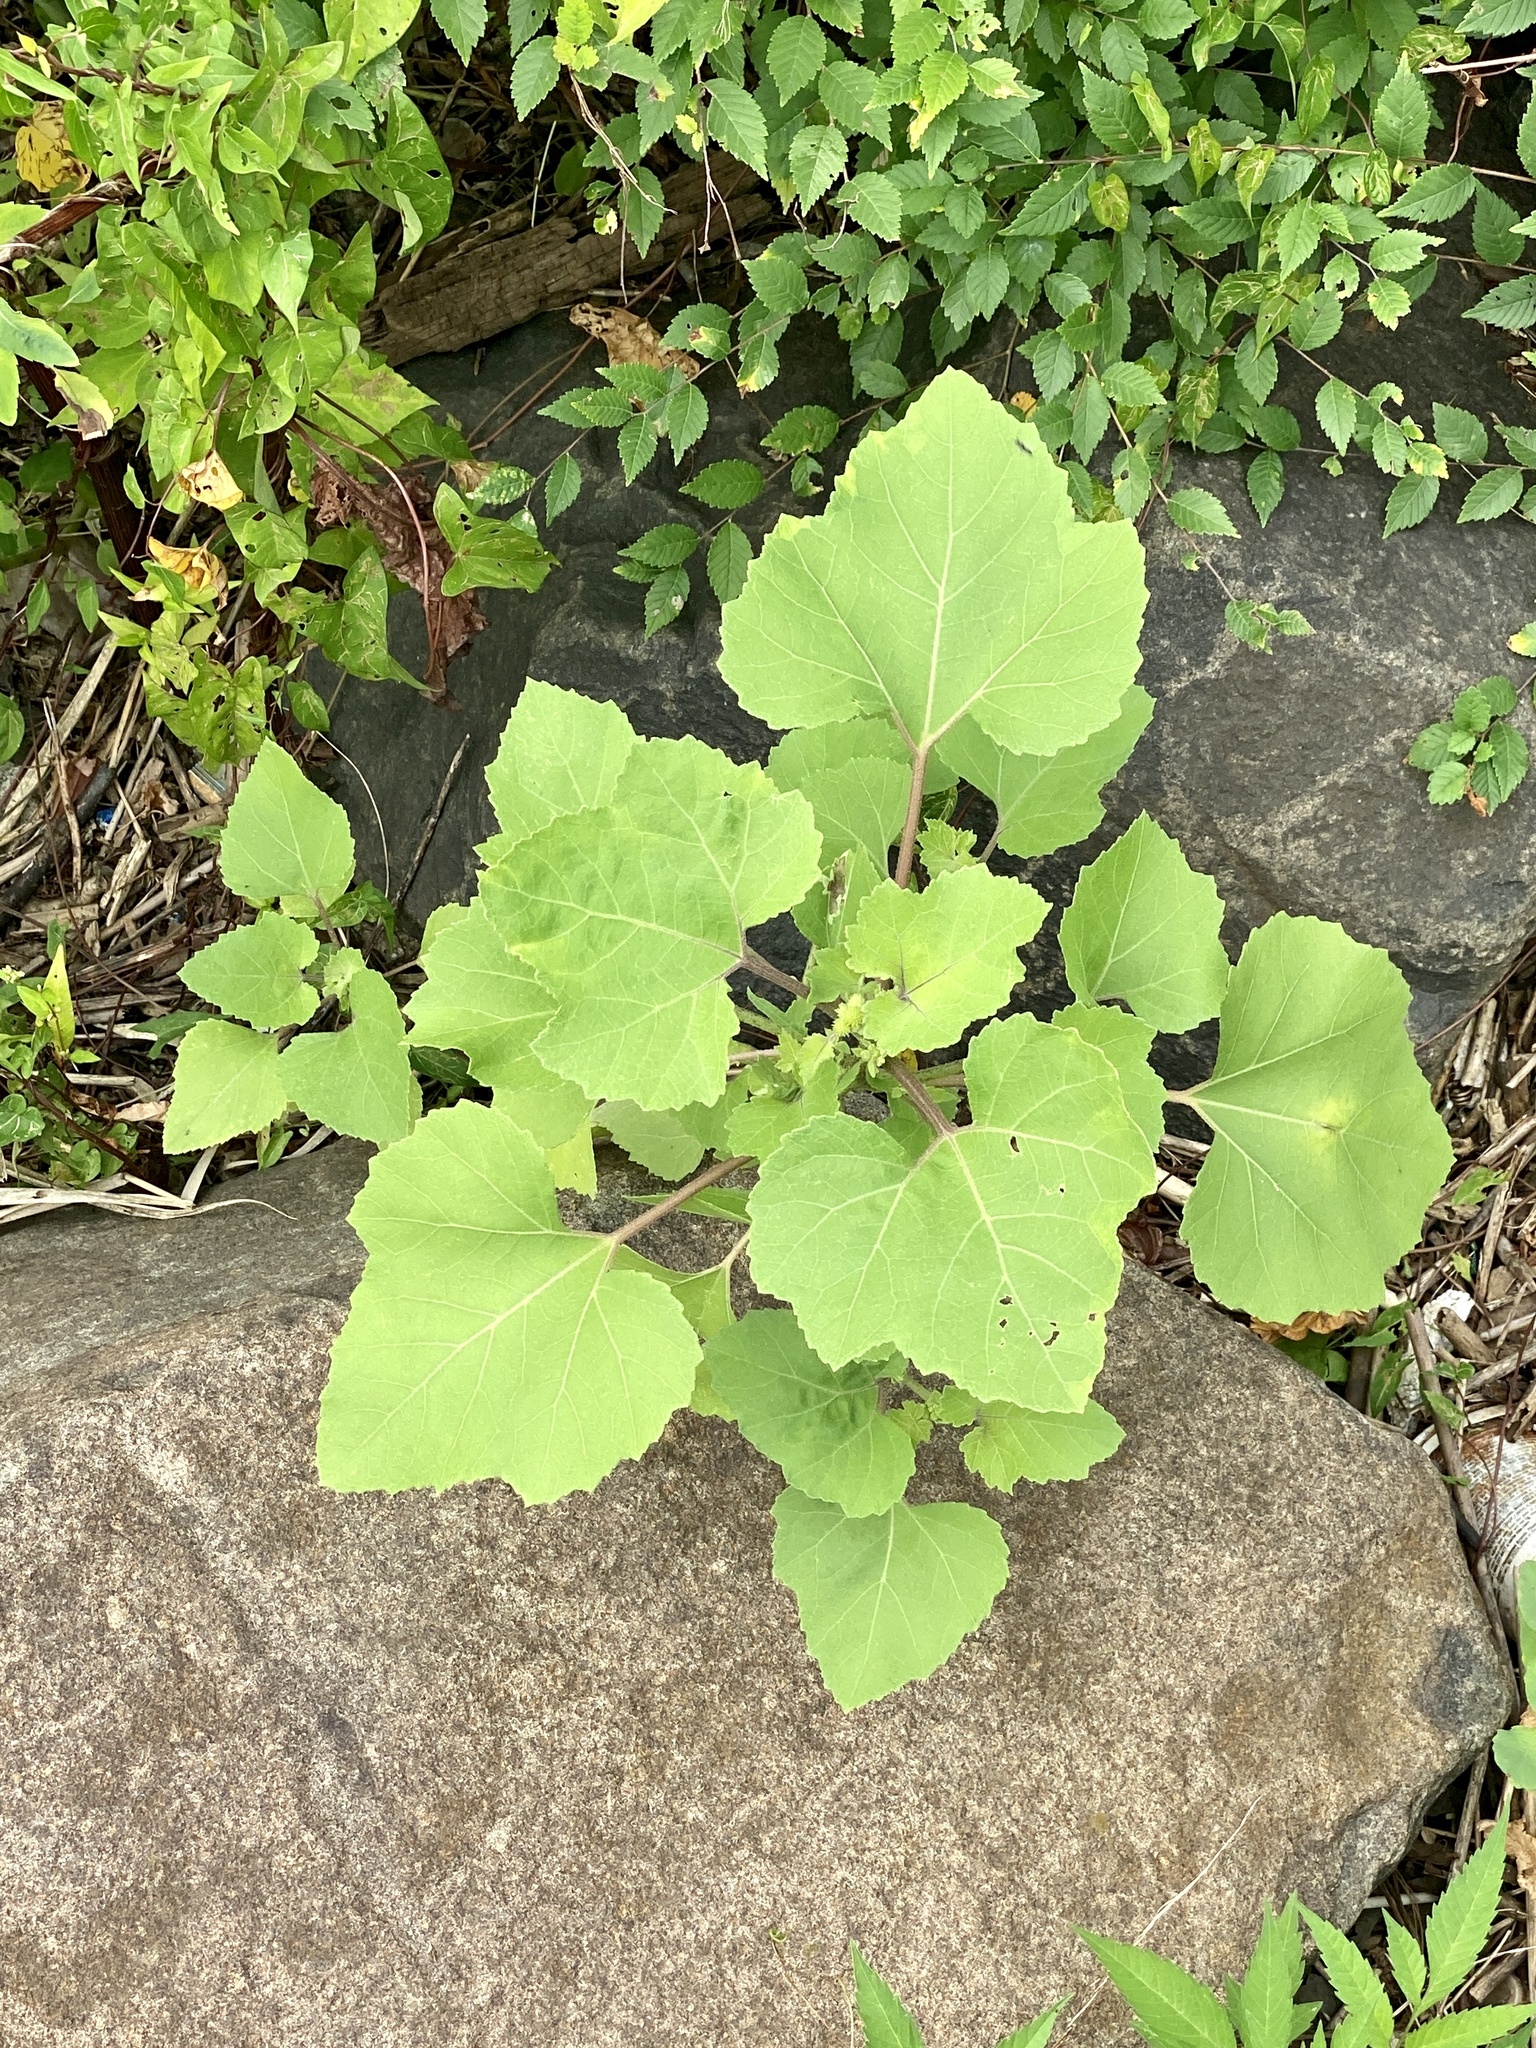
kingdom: Plantae
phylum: Tracheophyta
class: Magnoliopsida
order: Asterales
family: Asteraceae
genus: Xanthium
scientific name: Xanthium strumarium
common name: Rough cocklebur
